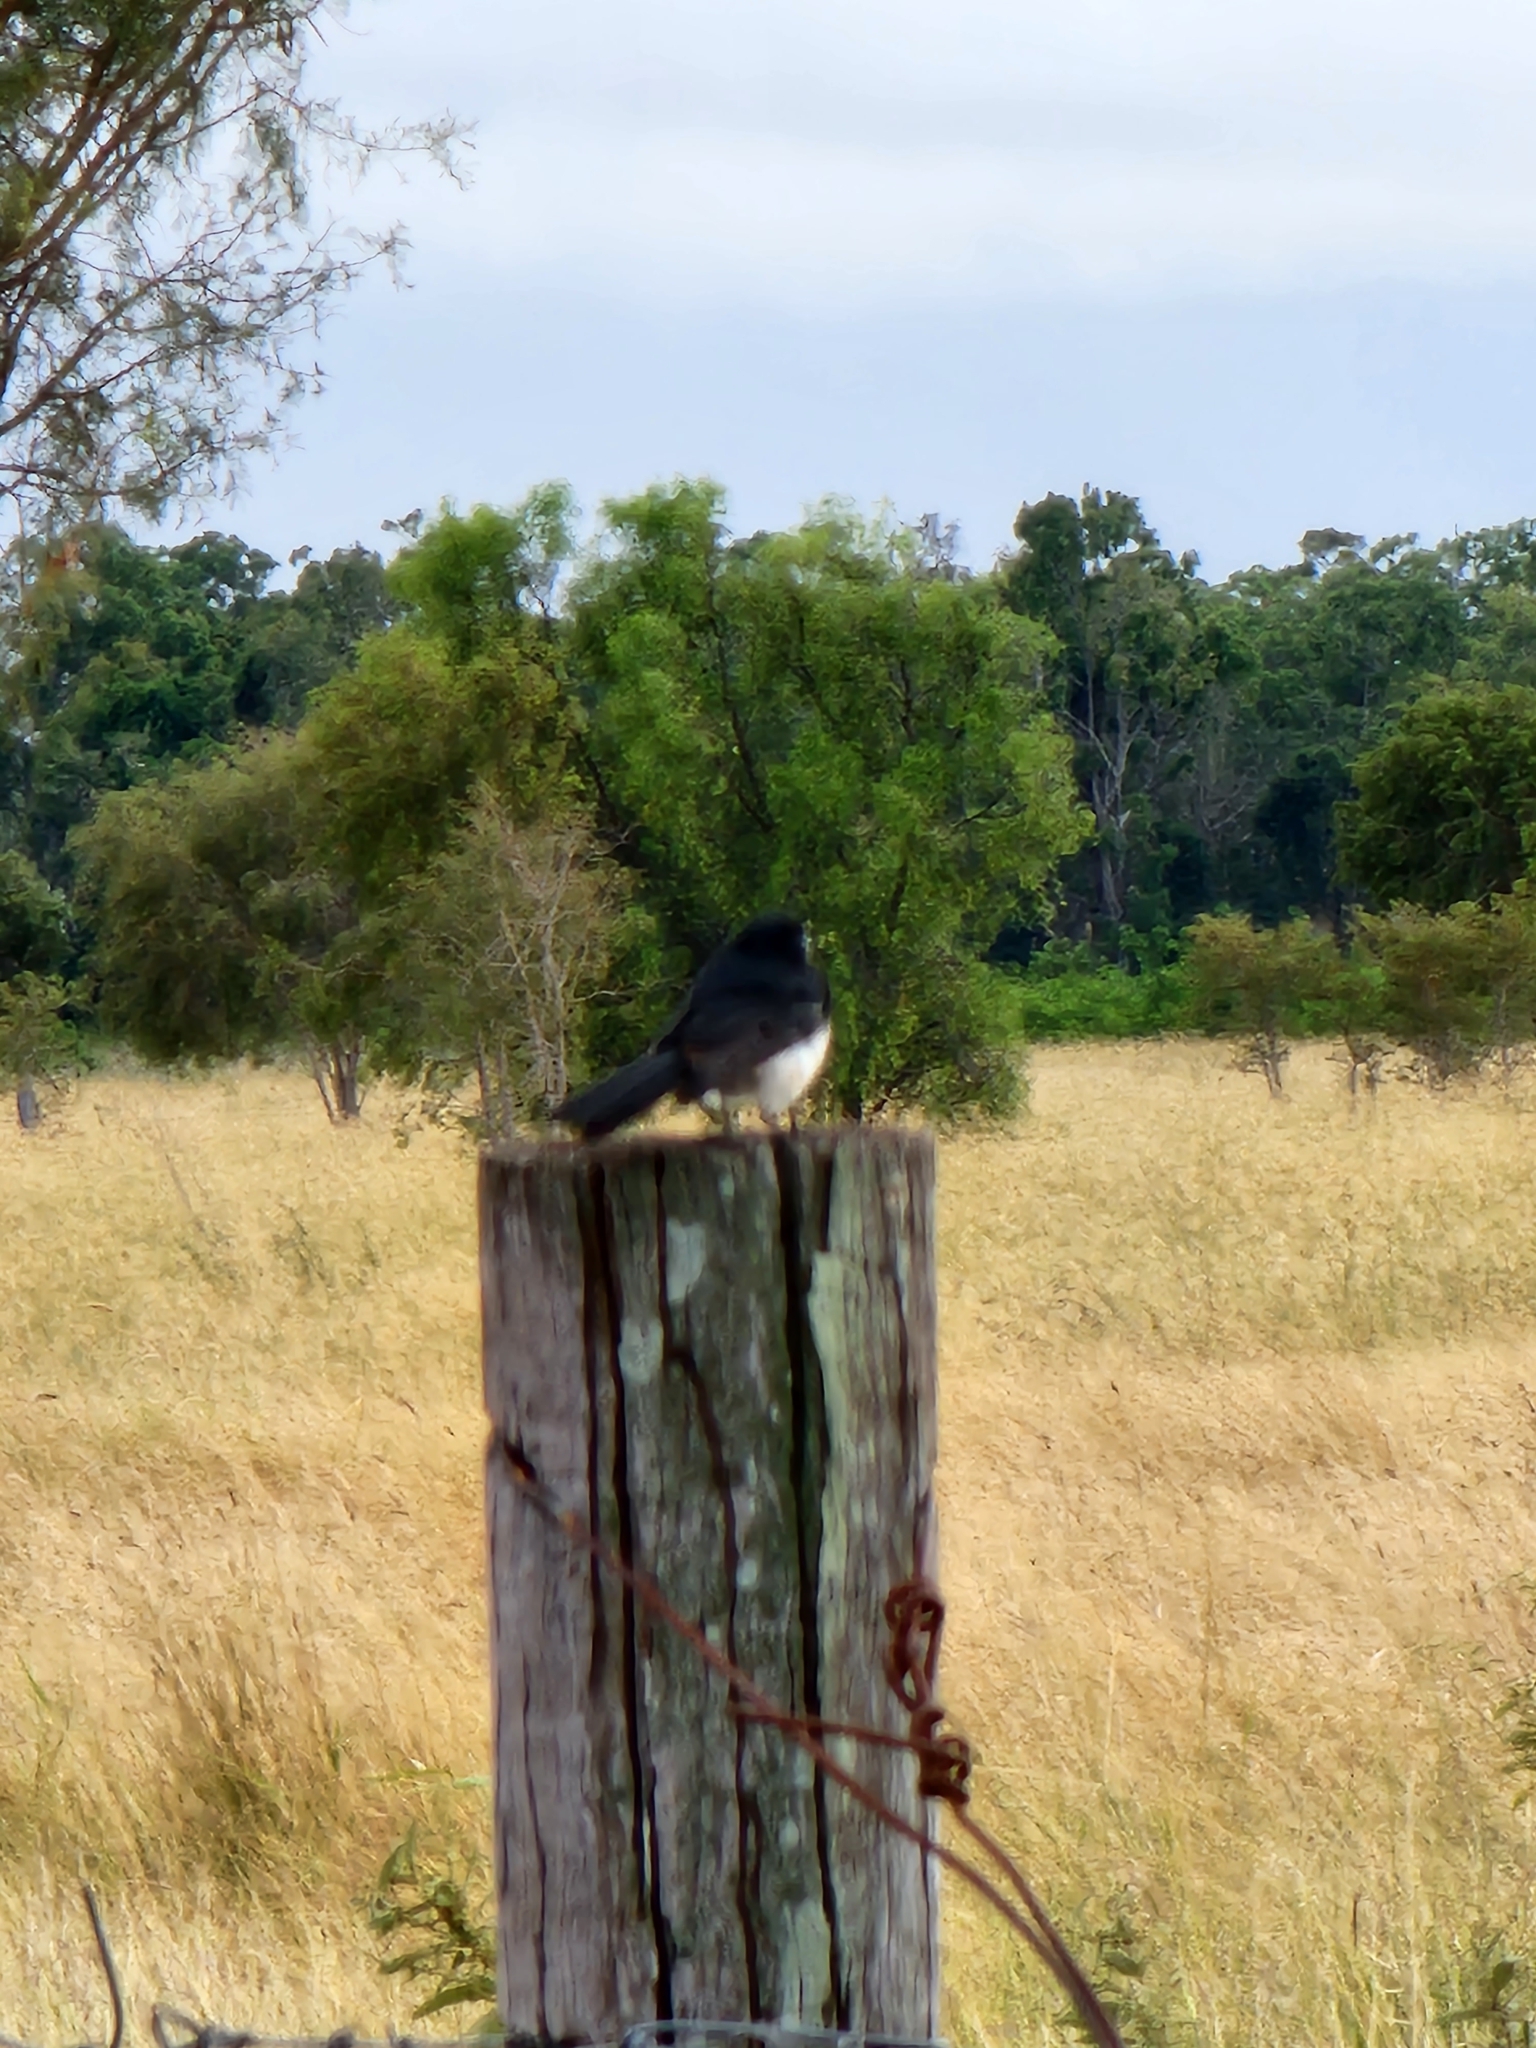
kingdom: Animalia
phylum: Chordata
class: Aves
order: Passeriformes
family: Rhipiduridae
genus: Rhipidura
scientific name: Rhipidura leucophrys
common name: Willie wagtail
